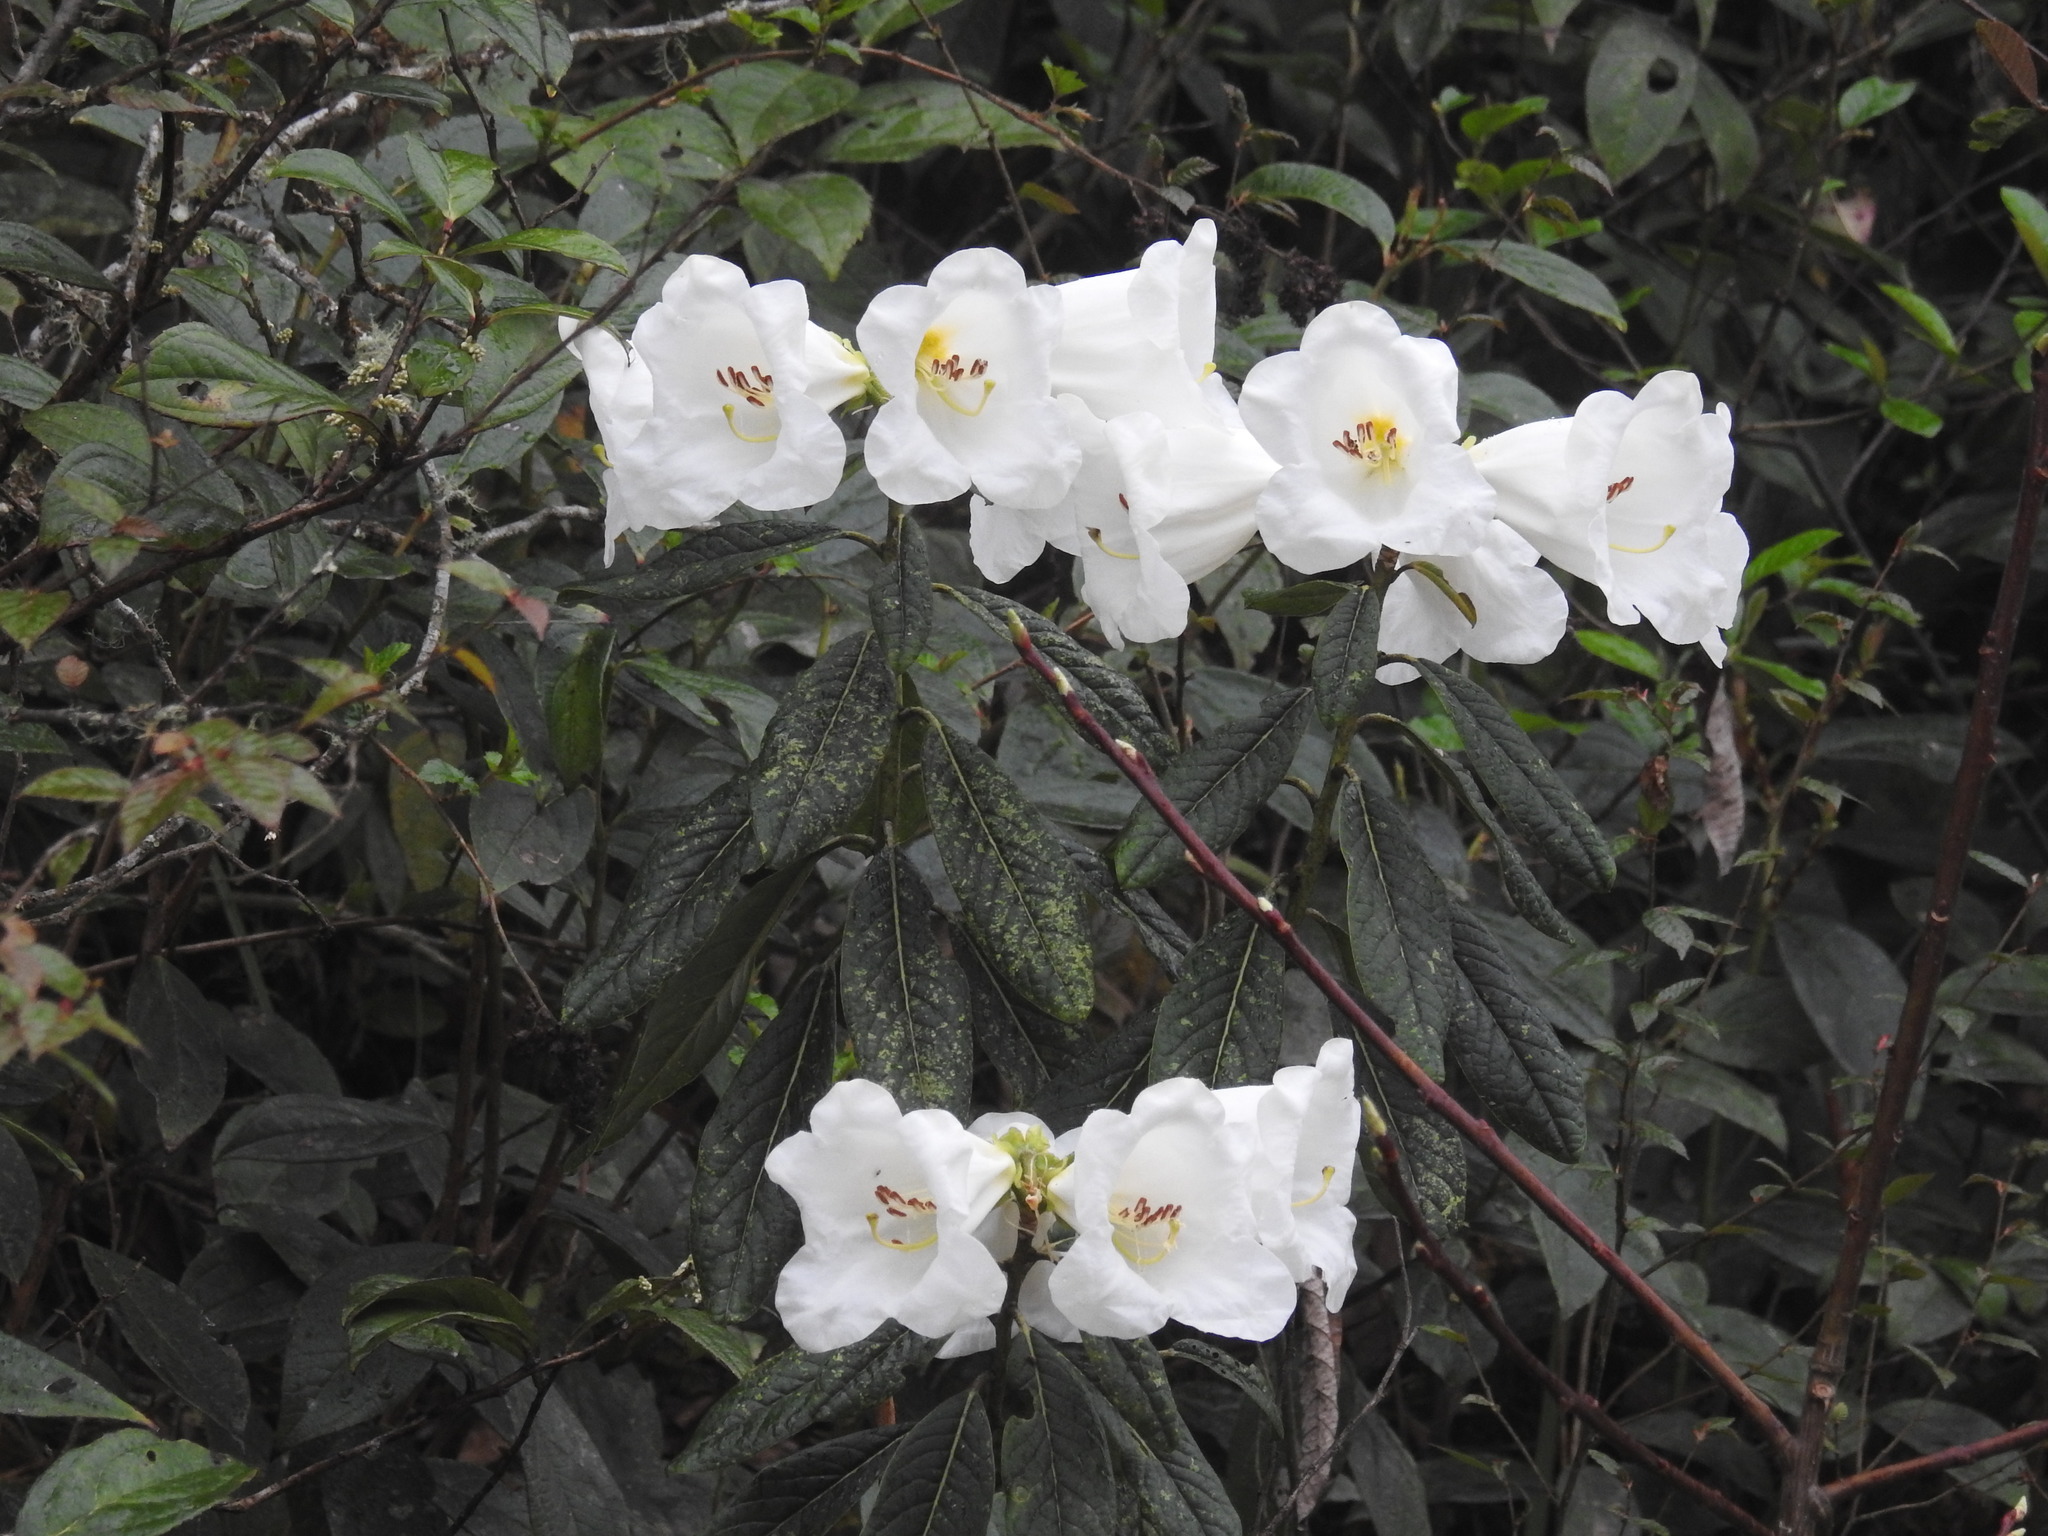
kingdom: Plantae
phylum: Tracheophyta
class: Magnoliopsida
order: Ericales
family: Ericaceae
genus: Rhododendron
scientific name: Rhododendron lindleyi
